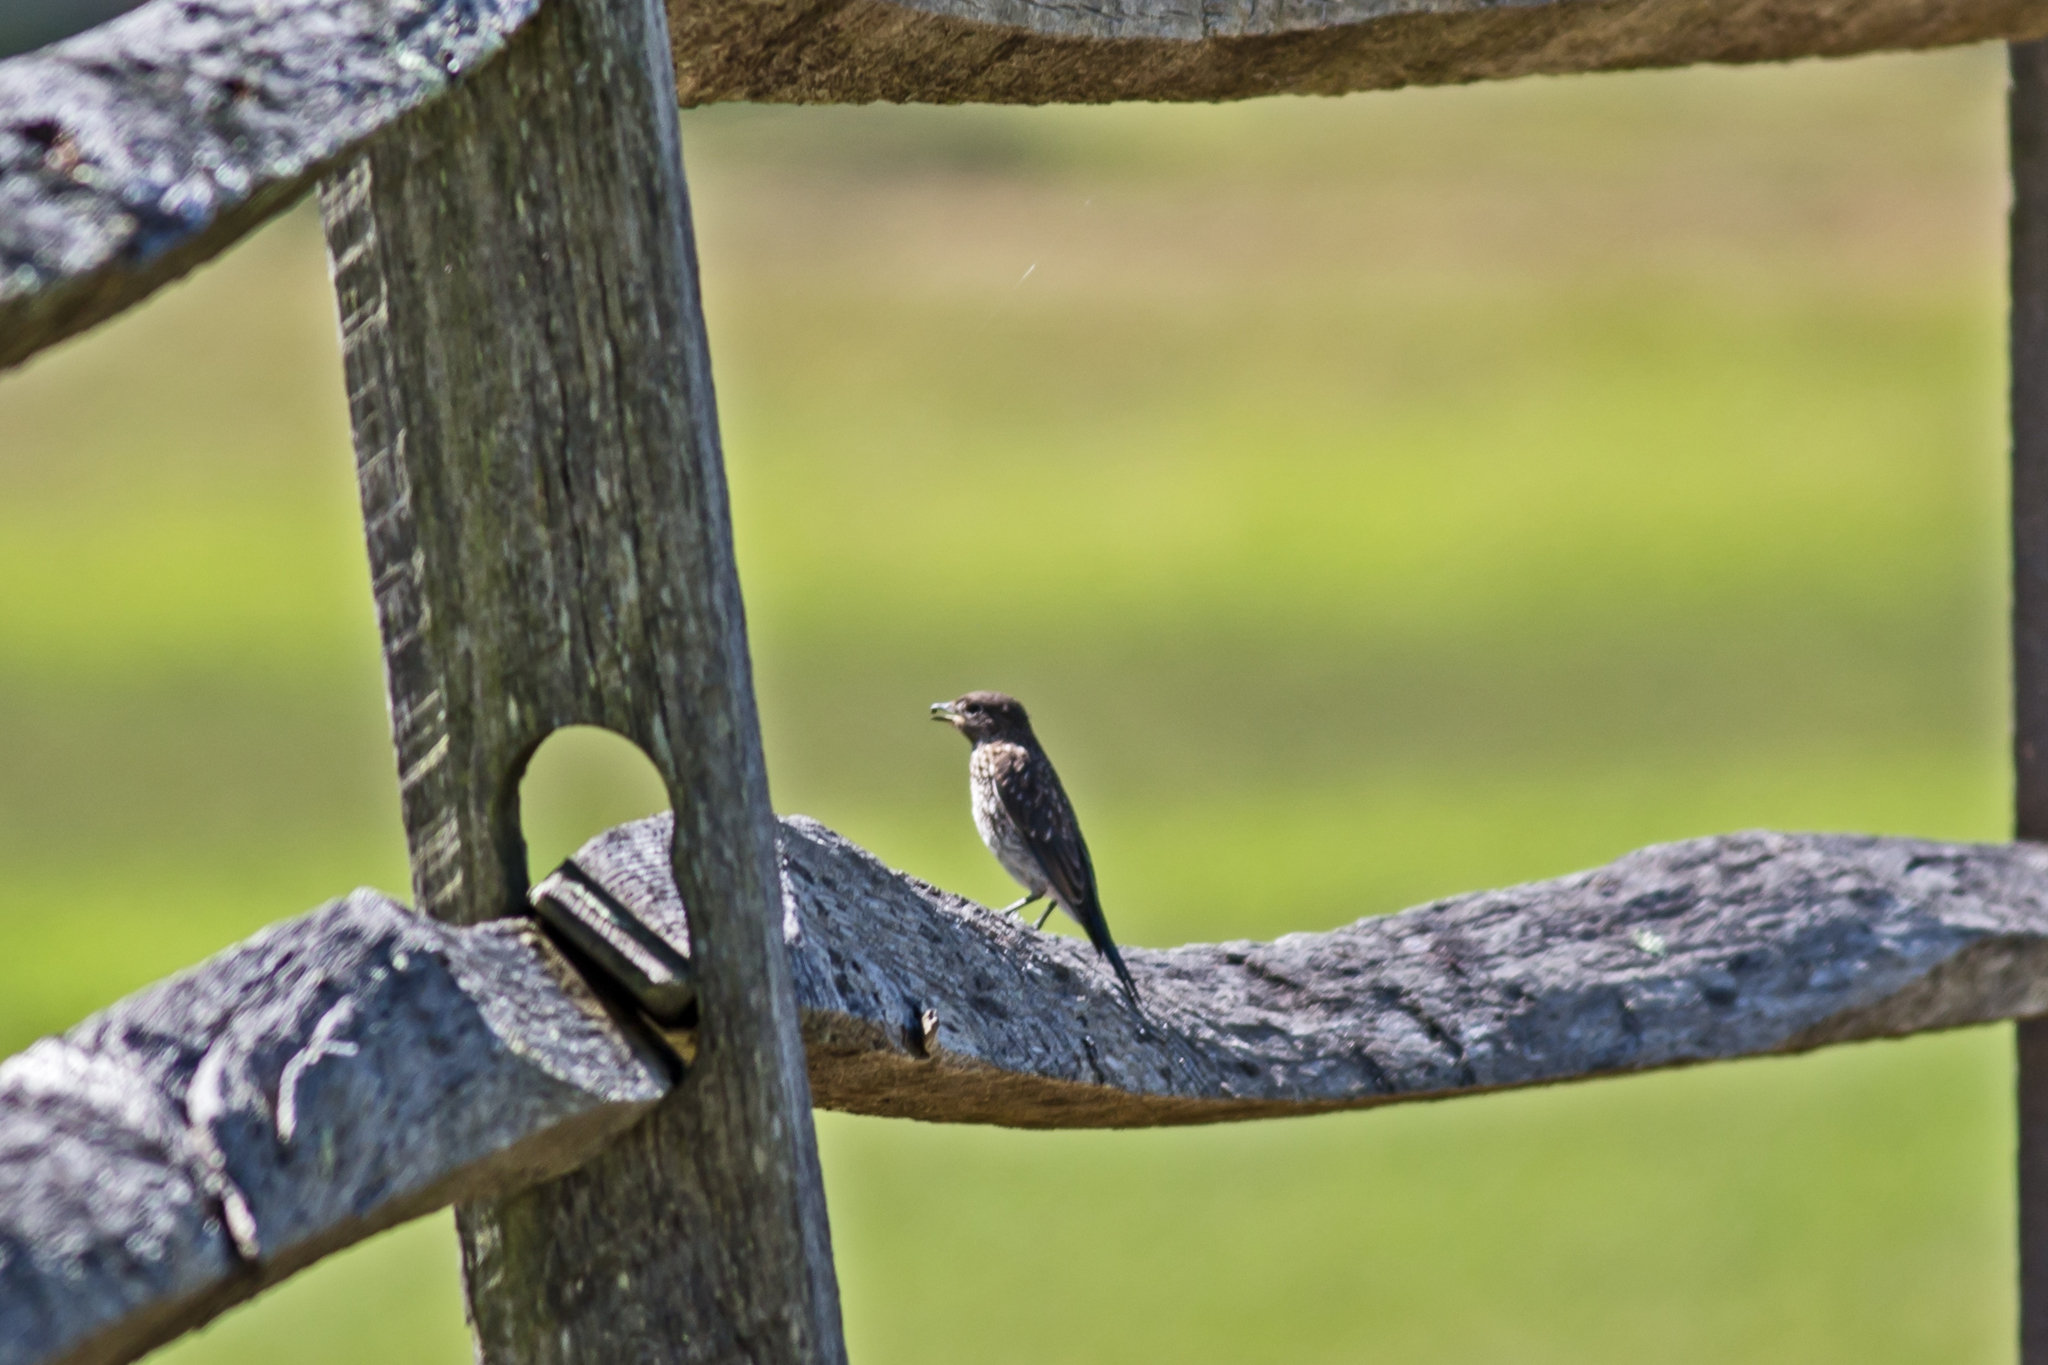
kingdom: Animalia
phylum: Chordata
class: Aves
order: Passeriformes
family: Turdidae
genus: Sialia
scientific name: Sialia sialis
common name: Eastern bluebird
